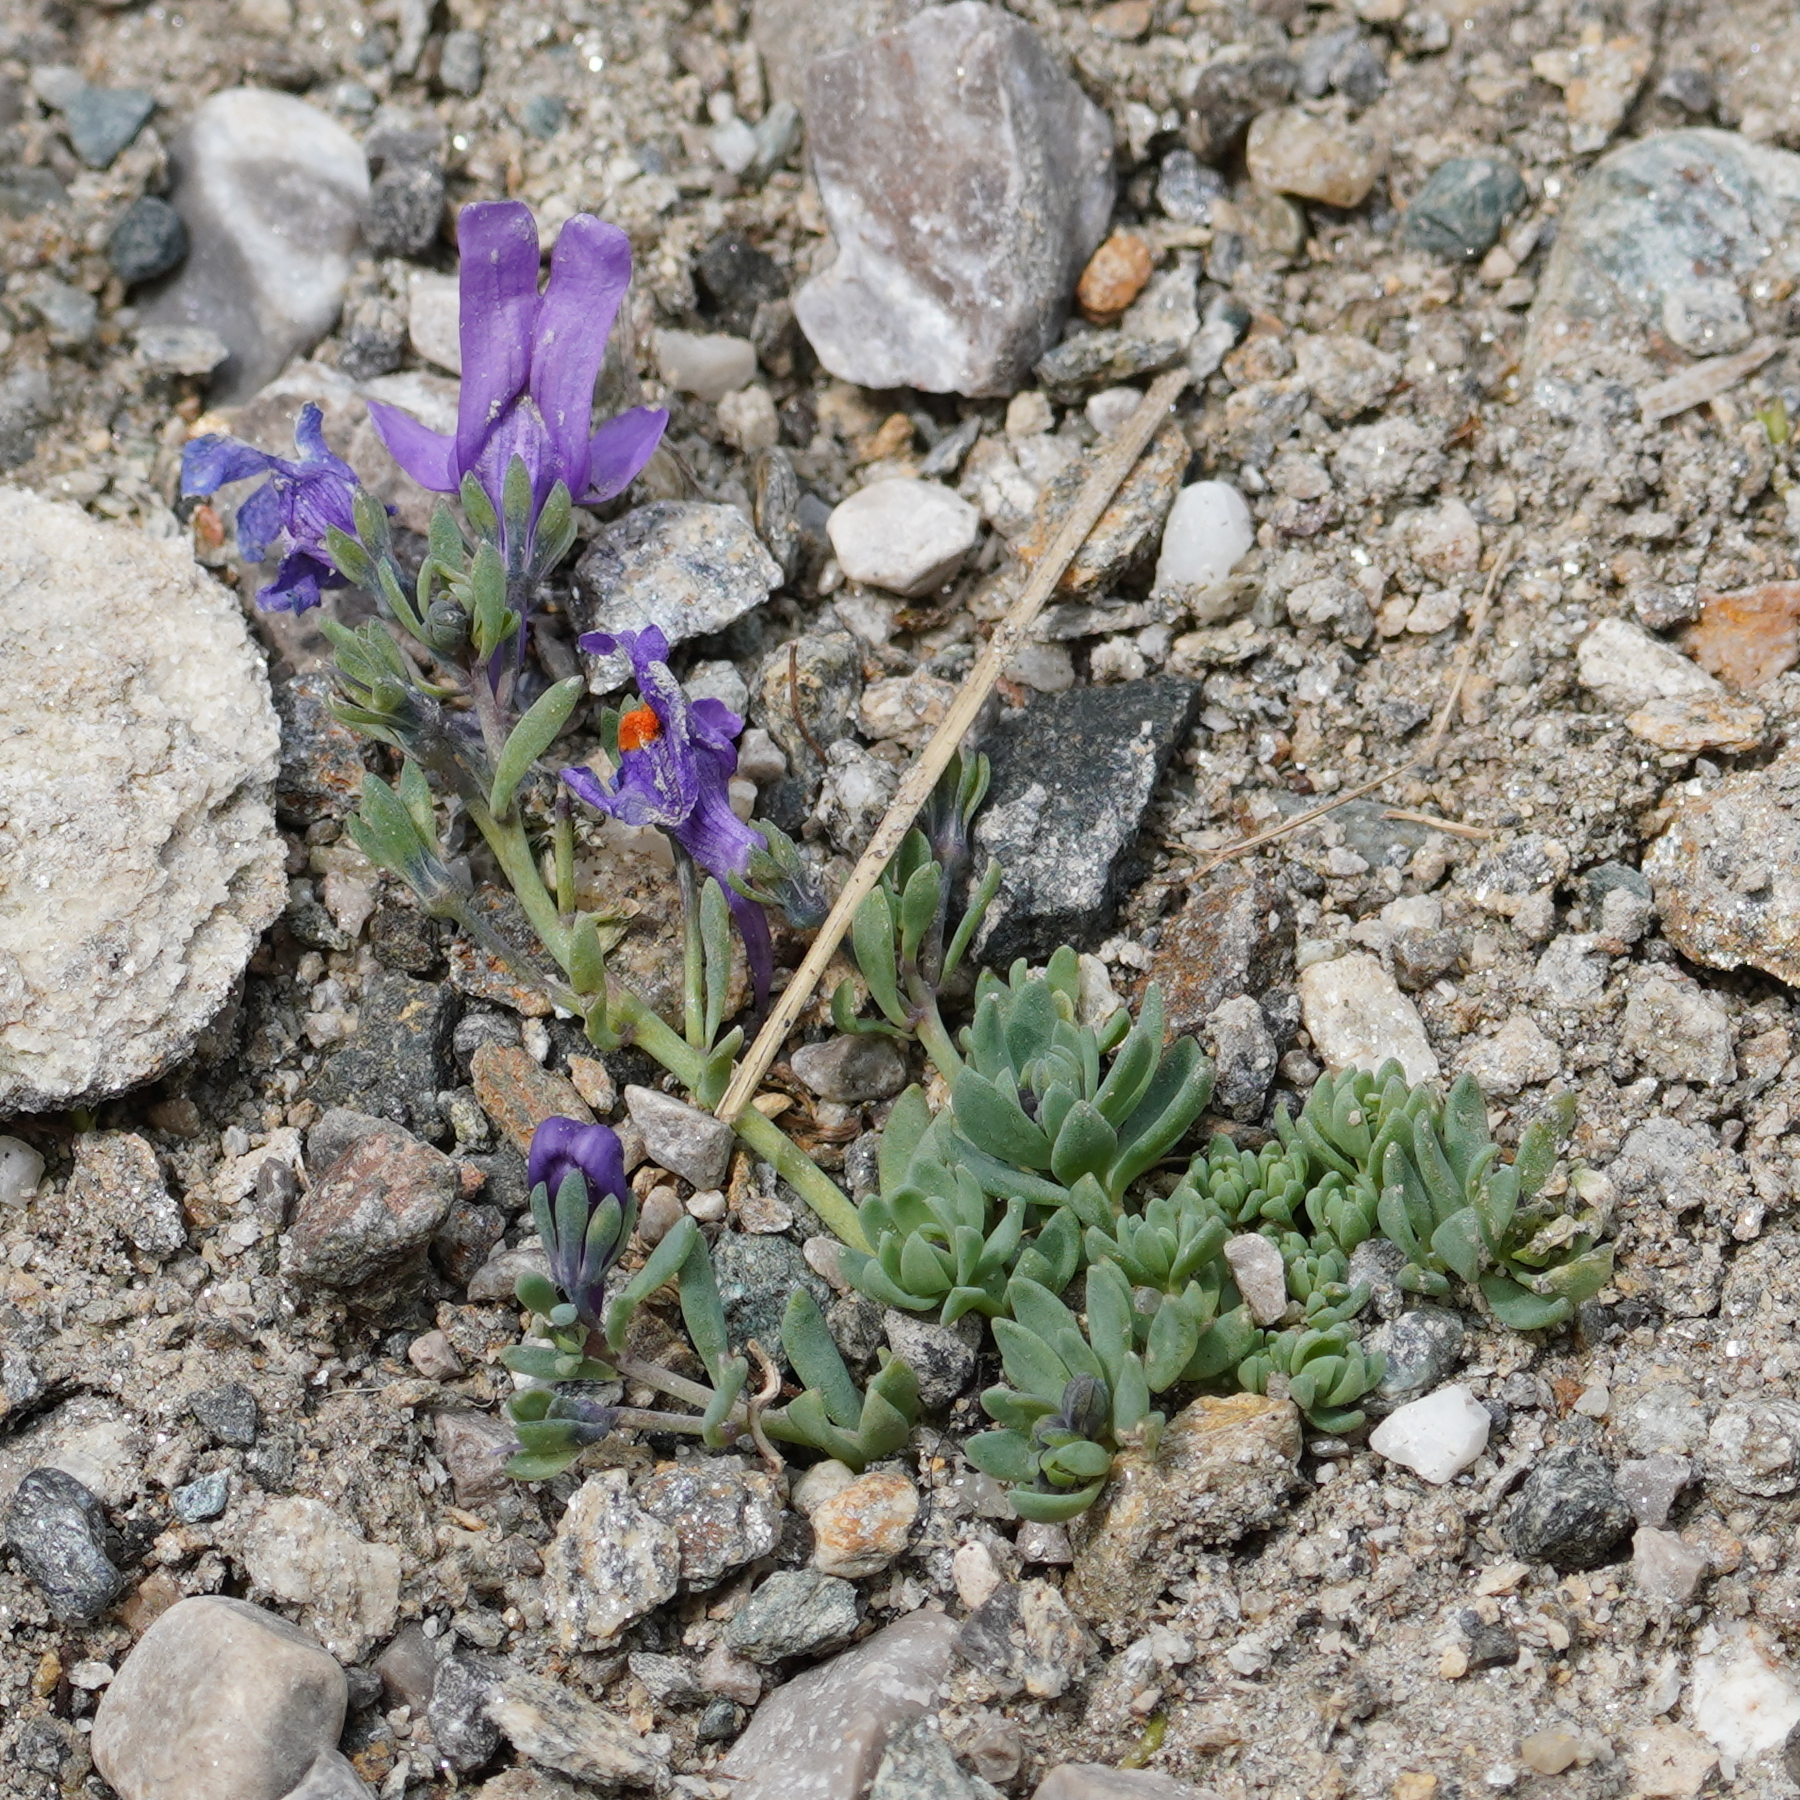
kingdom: Plantae
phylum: Tracheophyta
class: Magnoliopsida
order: Lamiales
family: Plantaginaceae
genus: Linaria
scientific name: Linaria alpina
